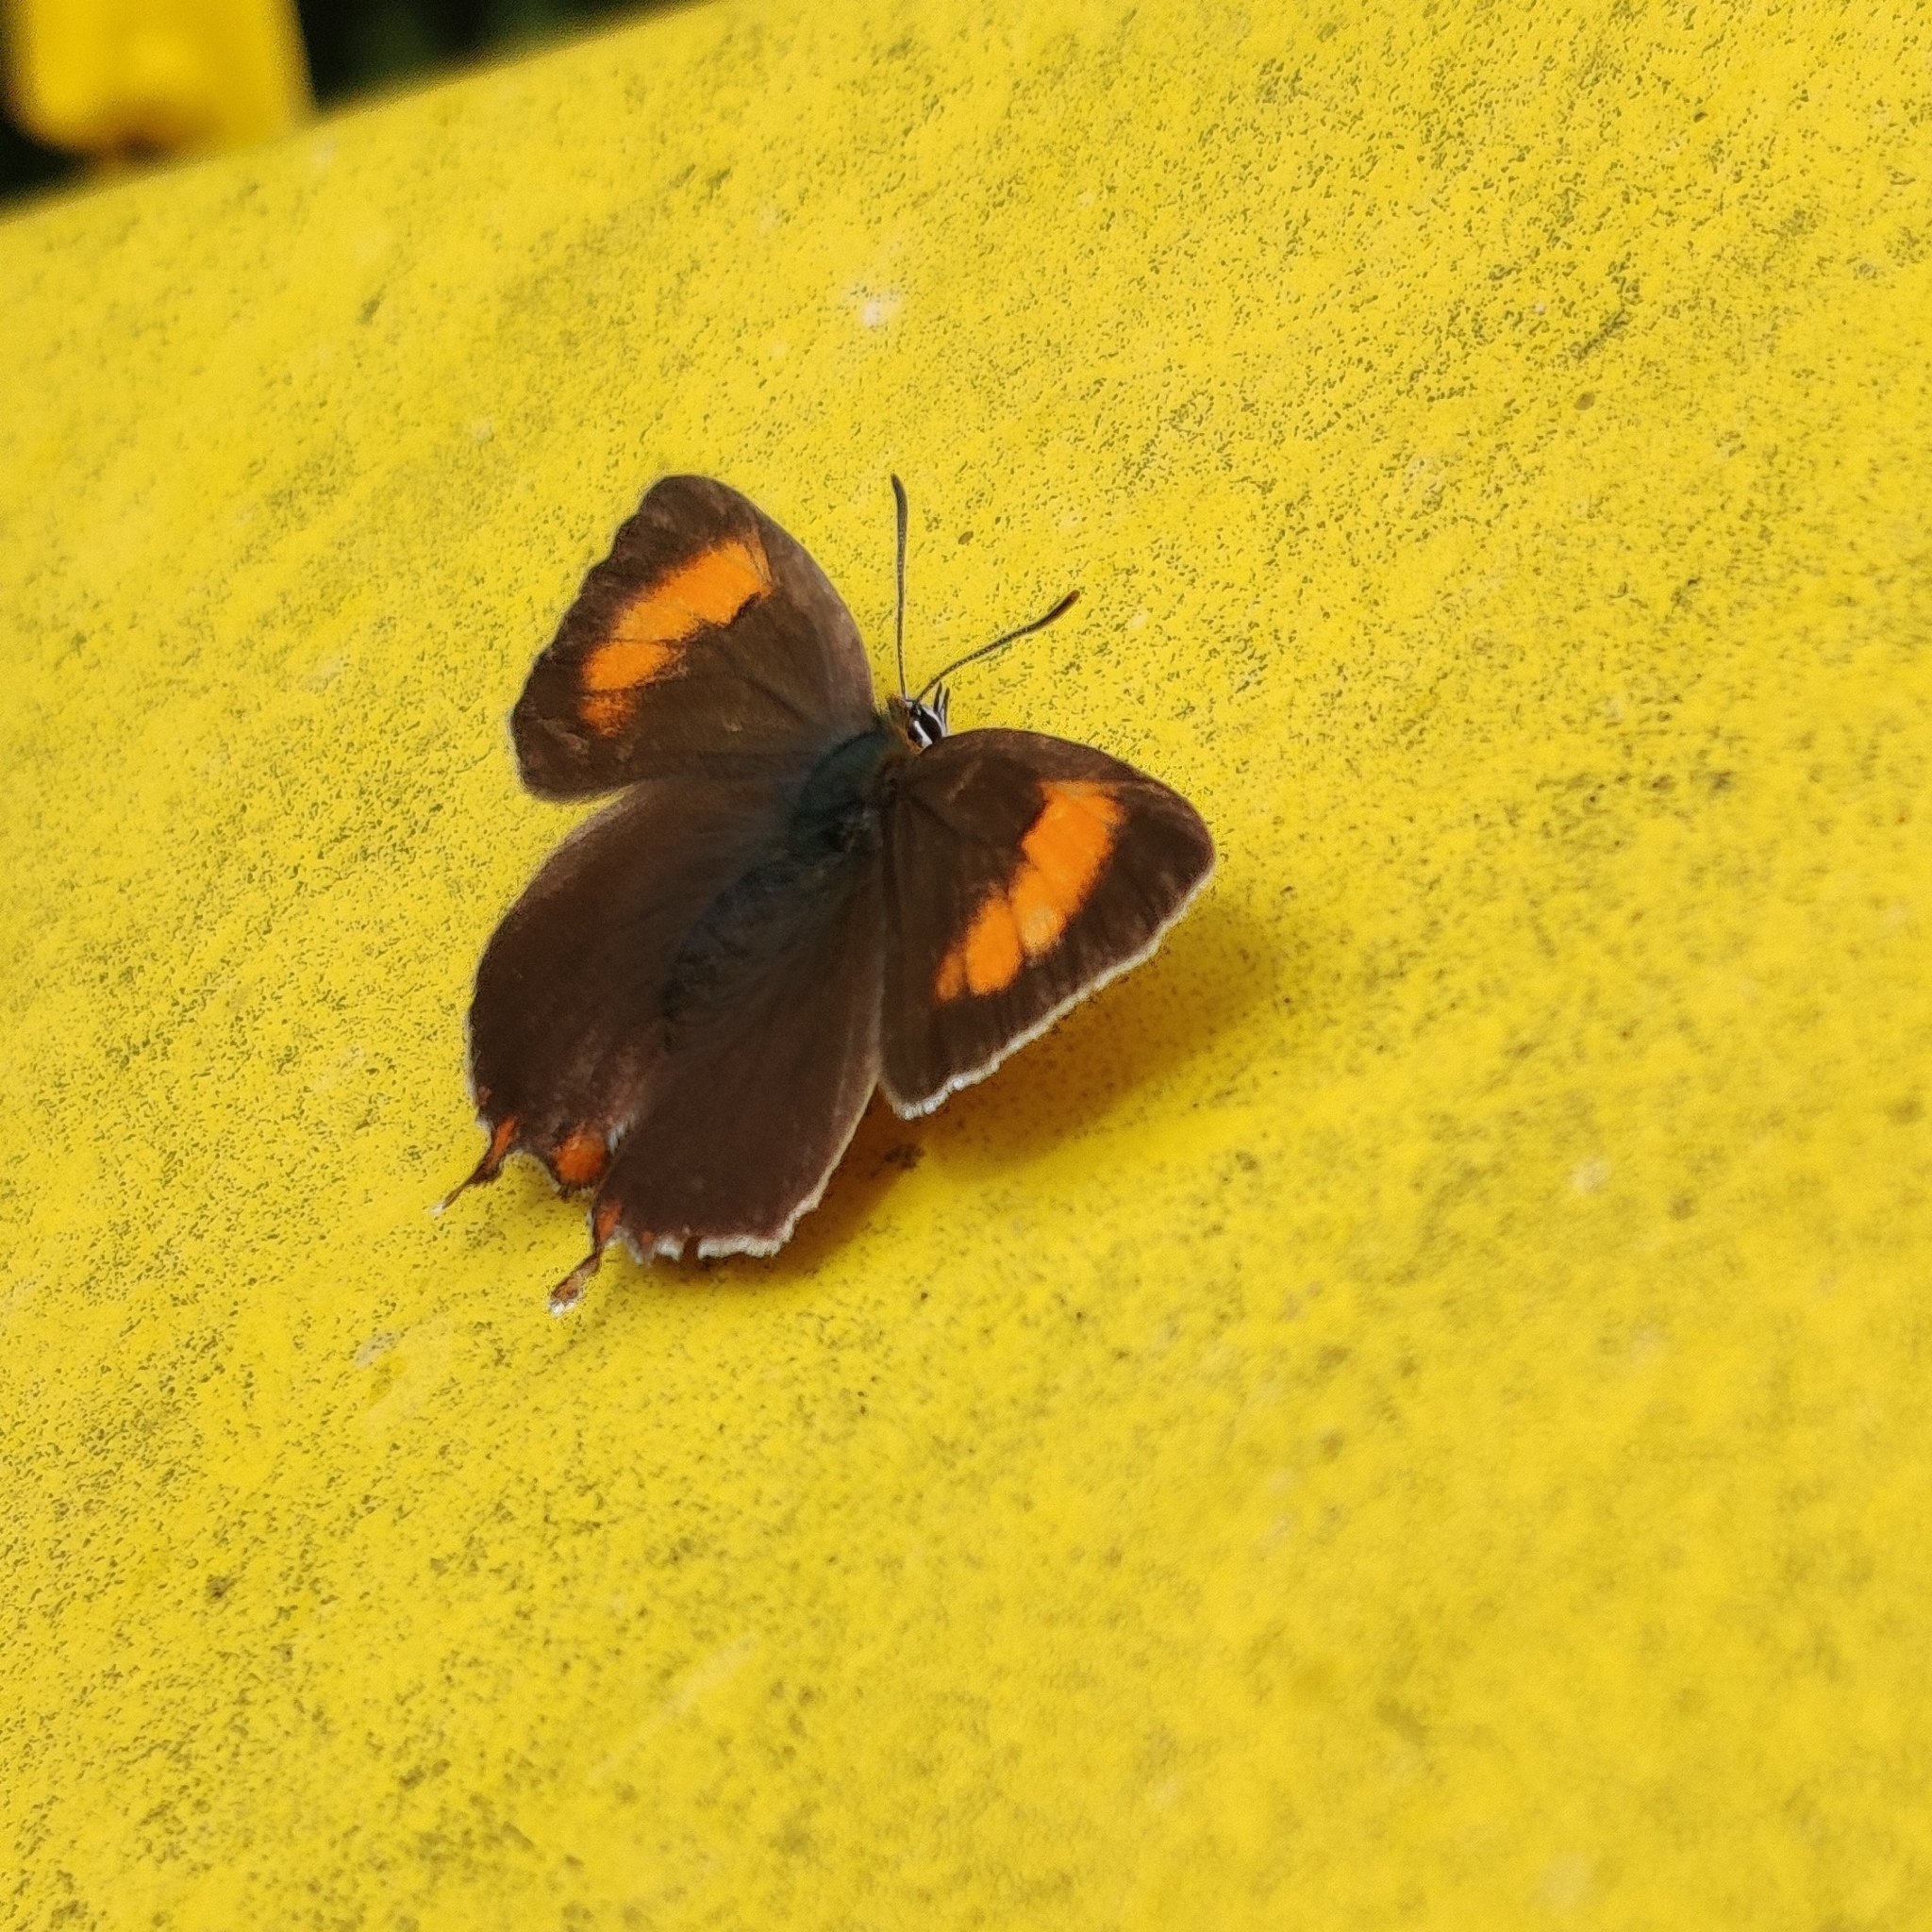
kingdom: Animalia
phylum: Arthropoda
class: Insecta
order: Lepidoptera
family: Lycaenidae
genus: Thecla
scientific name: Thecla betulae
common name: Brown hairstreak
